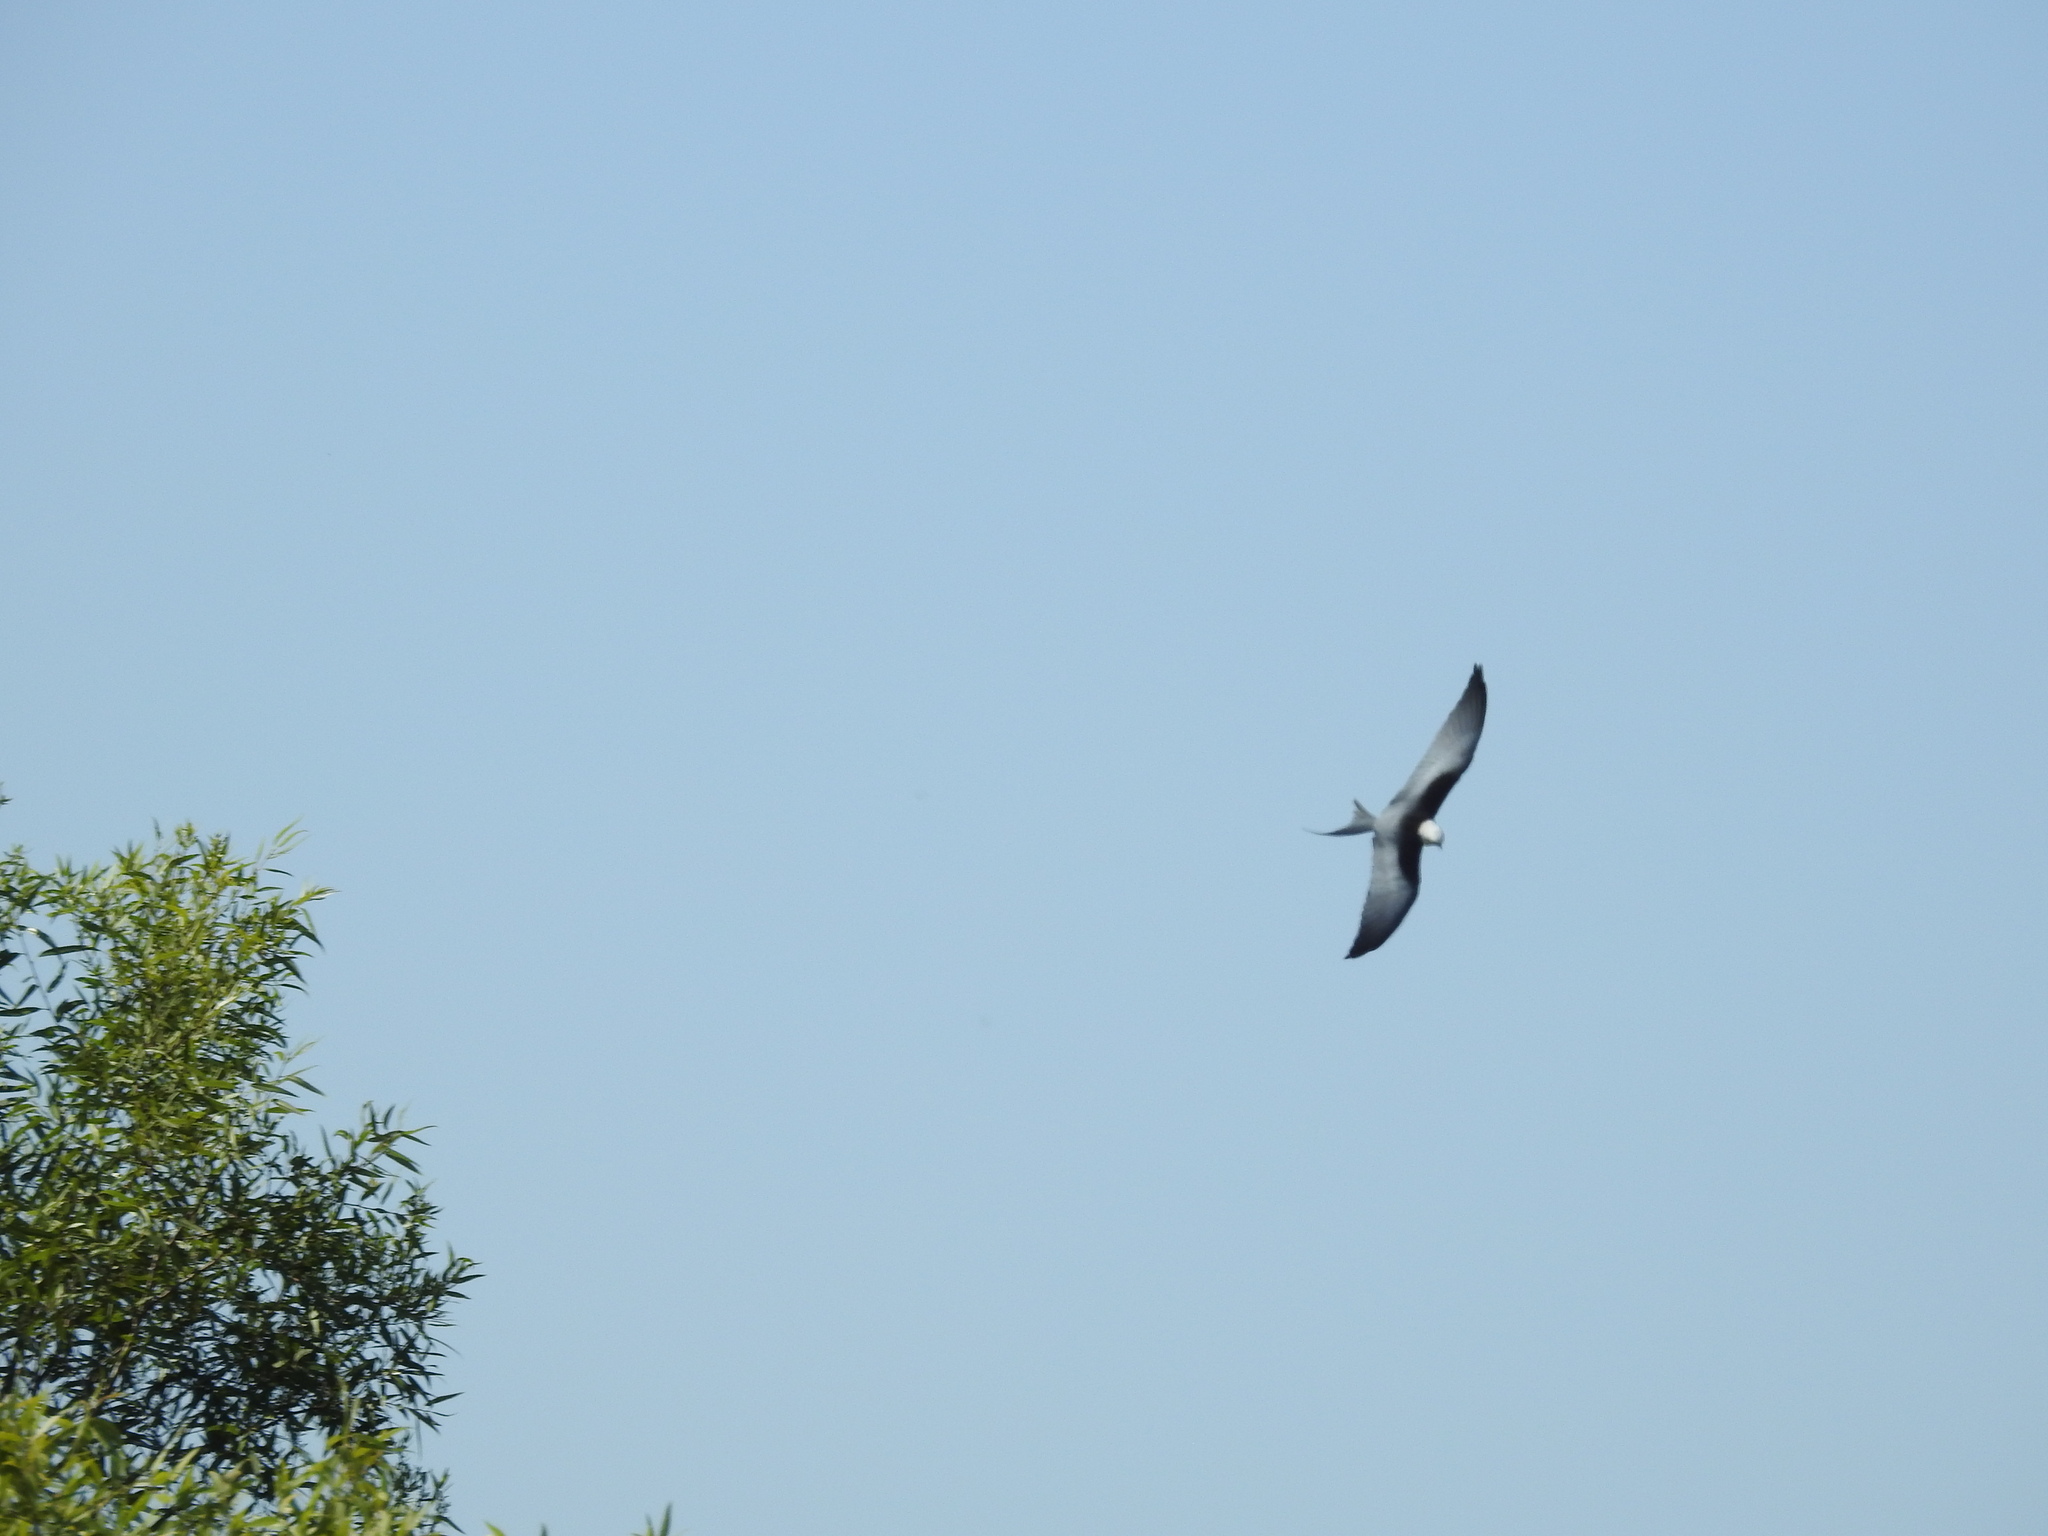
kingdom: Animalia
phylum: Chordata
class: Aves
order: Accipitriformes
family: Accipitridae
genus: Elanoides
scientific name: Elanoides forficatus
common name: Swallow-tailed kite
